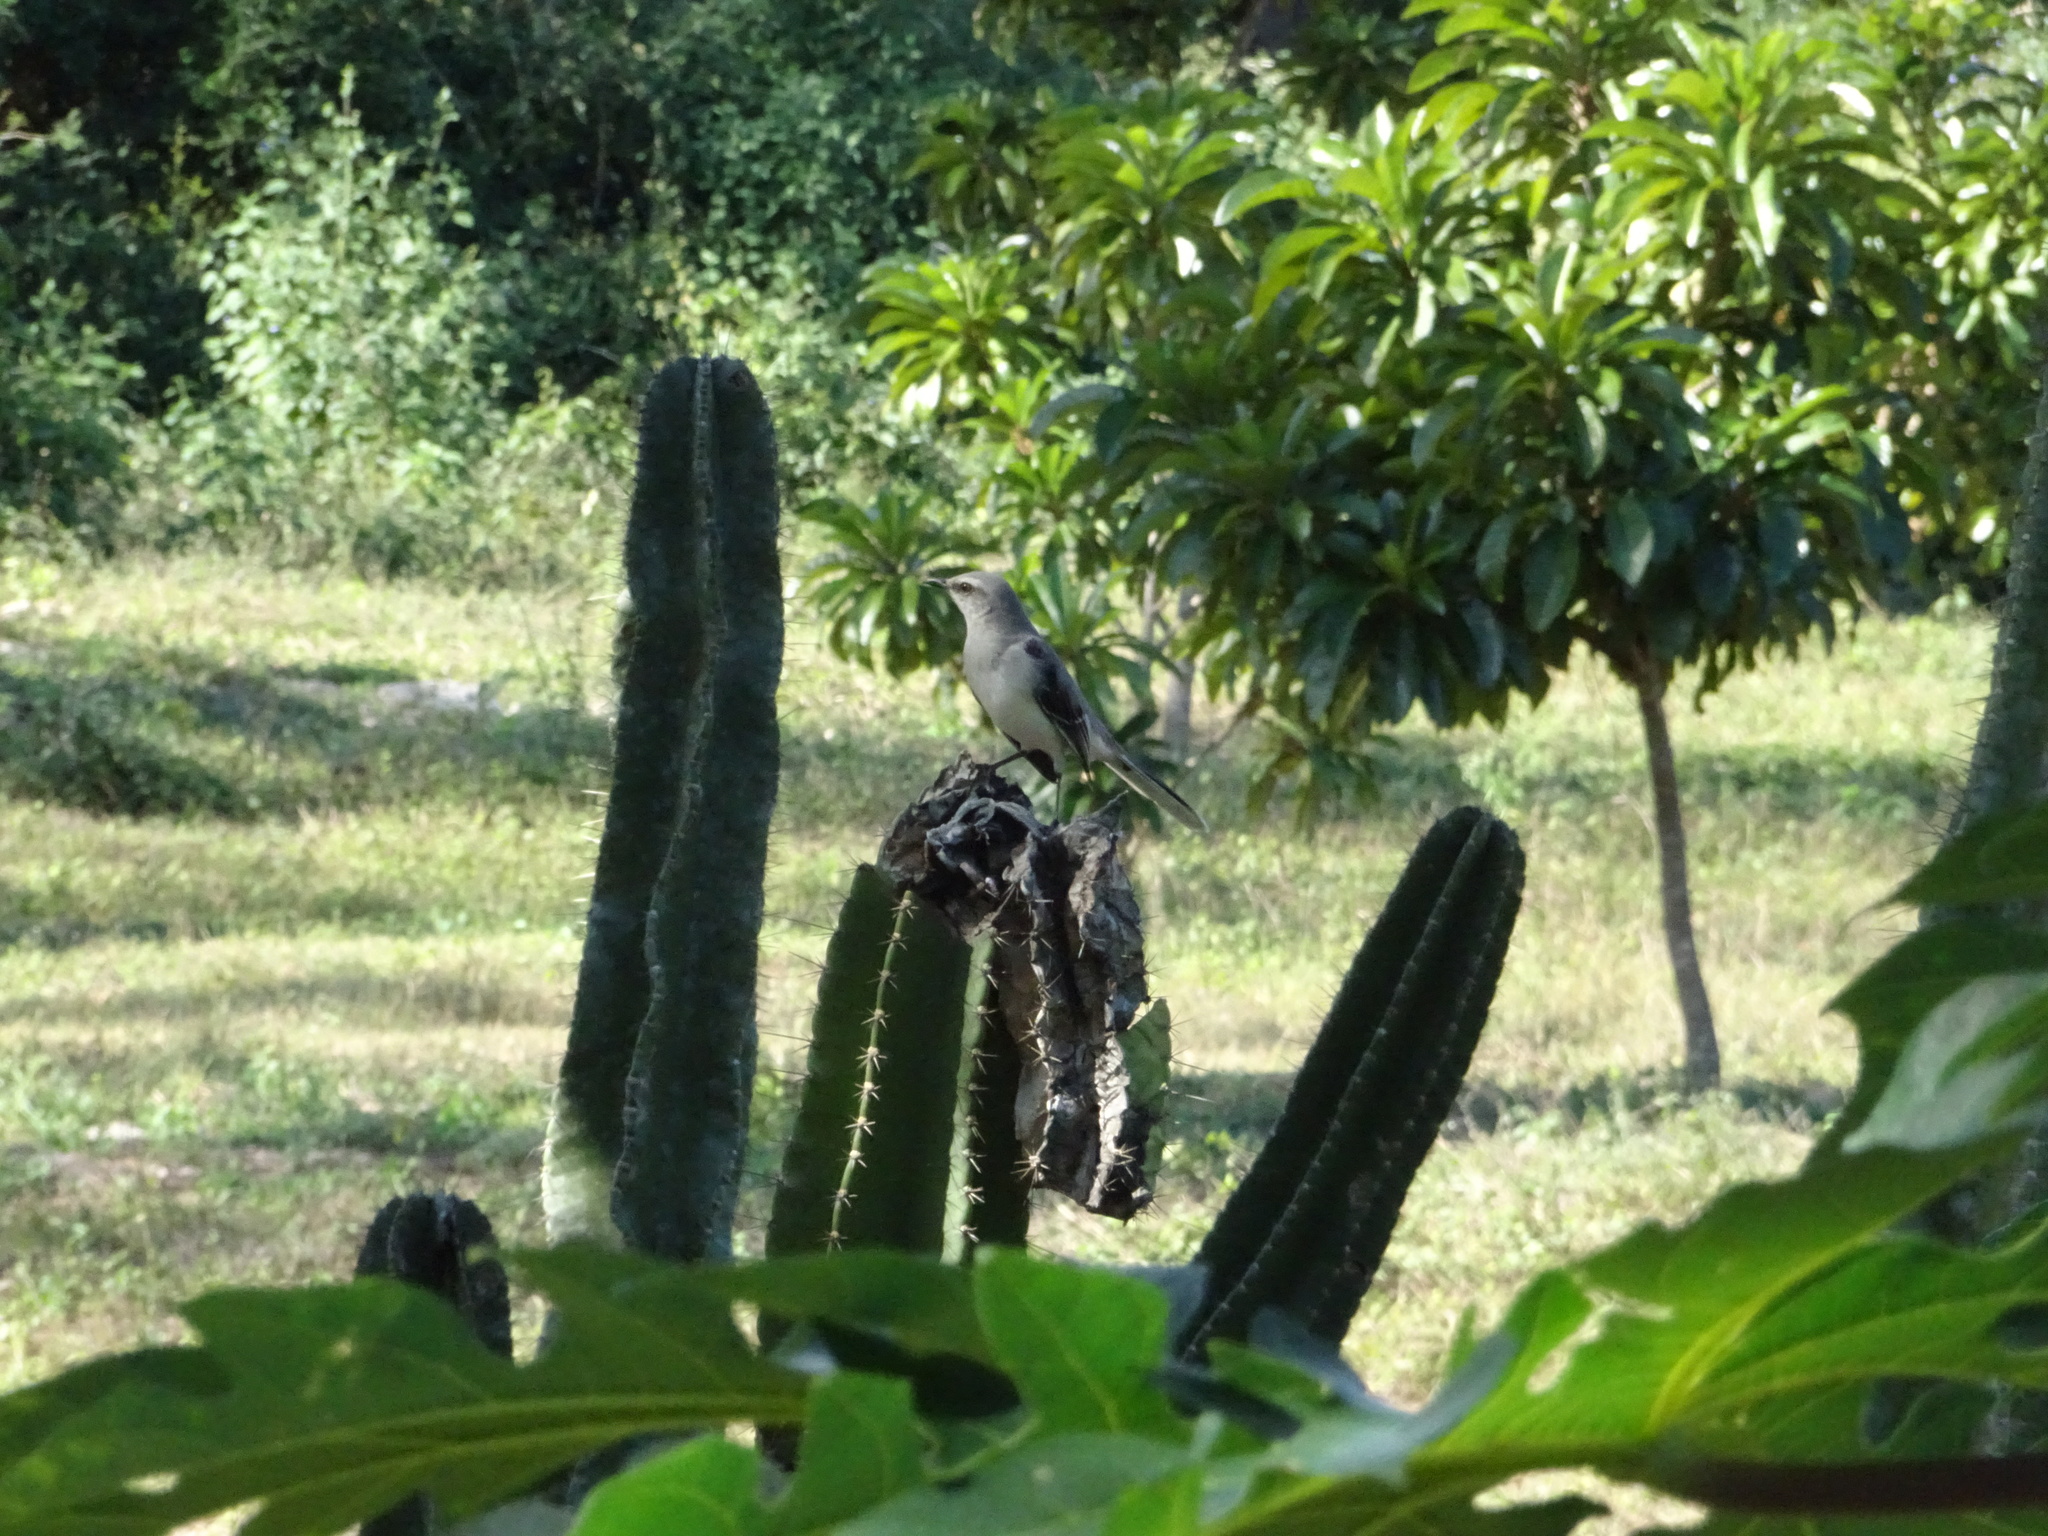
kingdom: Animalia
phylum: Chordata
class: Aves
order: Passeriformes
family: Mimidae
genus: Mimus
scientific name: Mimus gilvus
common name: Tropical mockingbird
